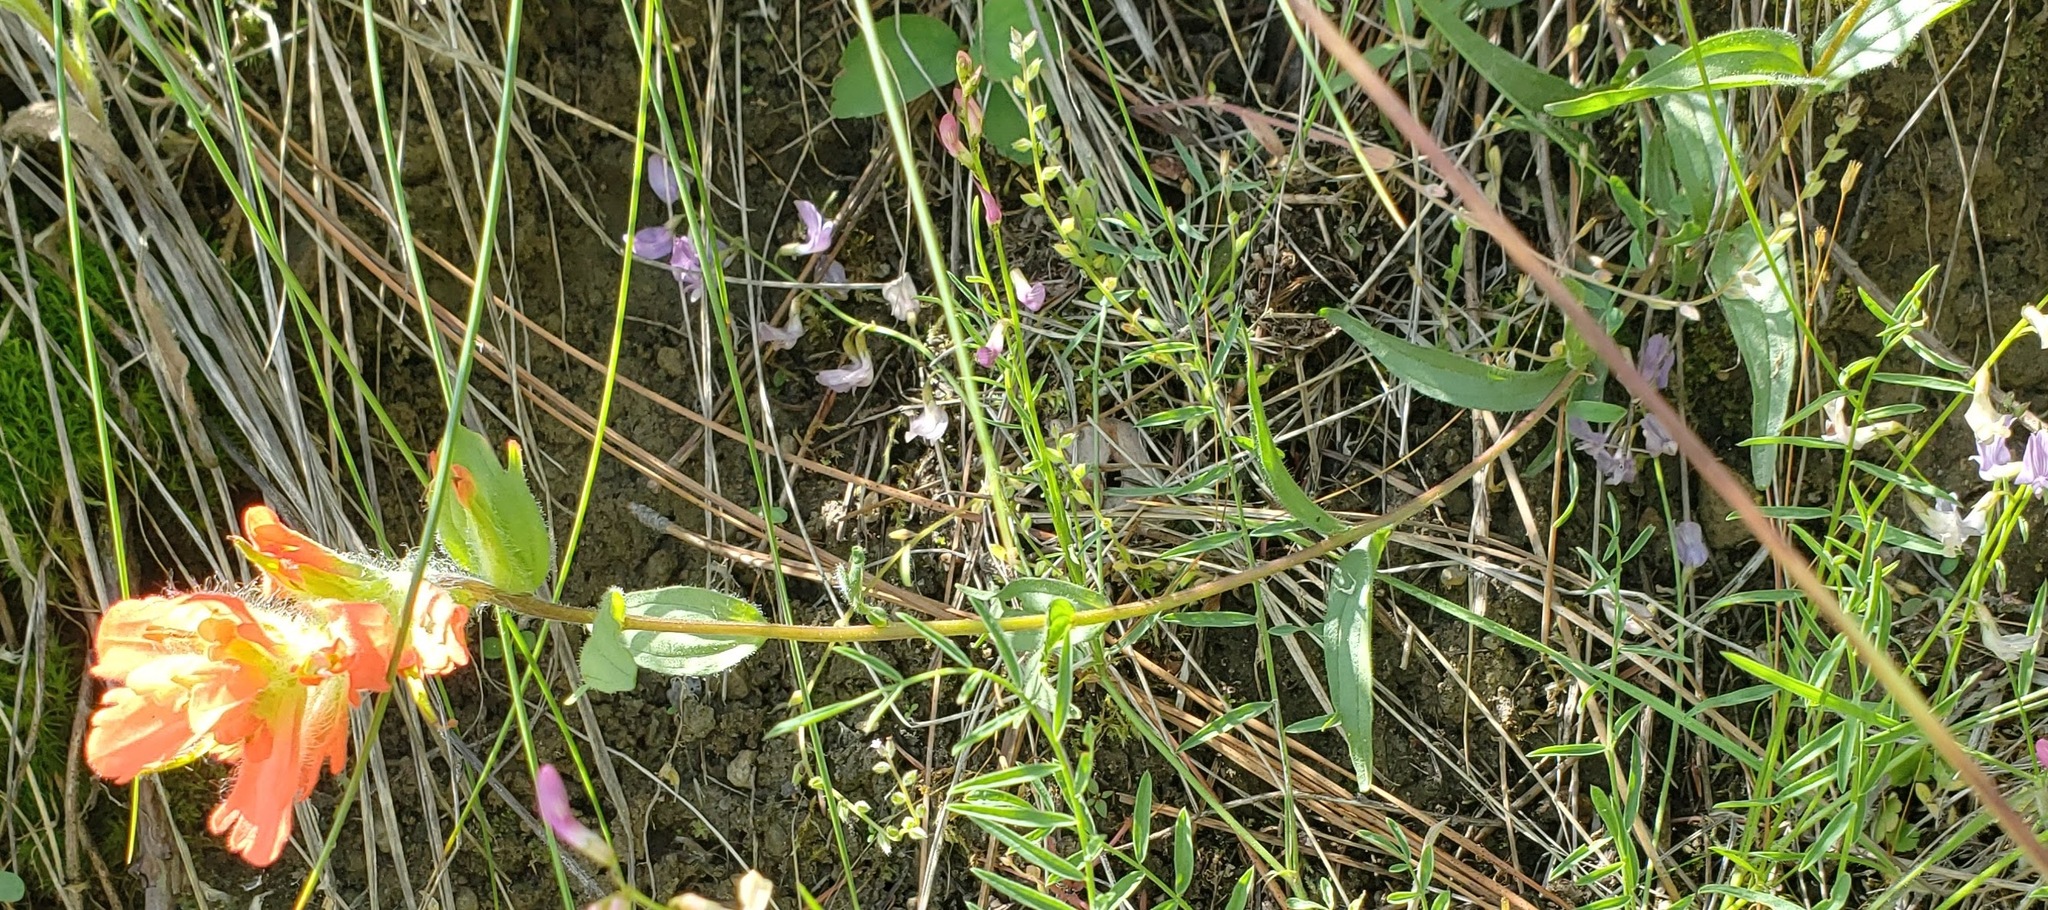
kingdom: Plantae
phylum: Tracheophyta
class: Magnoliopsida
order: Lamiales
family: Orobanchaceae
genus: Castilleja
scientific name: Castilleja hispida
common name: Bristly paintbrush
